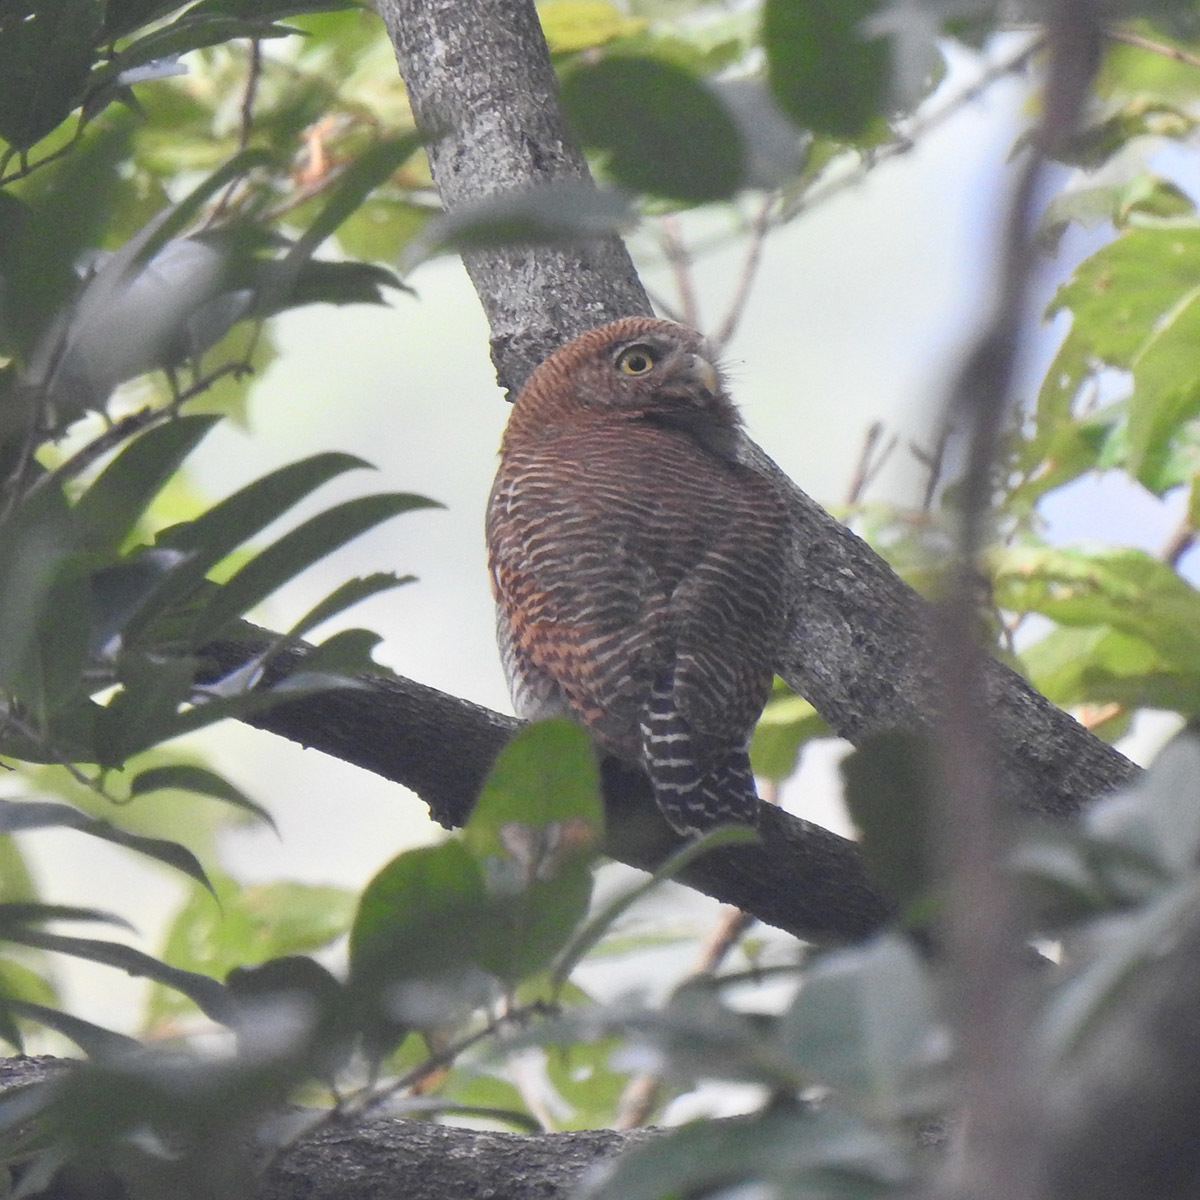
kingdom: Animalia
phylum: Chordata
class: Aves
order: Strigiformes
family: Strigidae
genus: Glaucidium
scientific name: Glaucidium radiatum
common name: Jungle owlet
